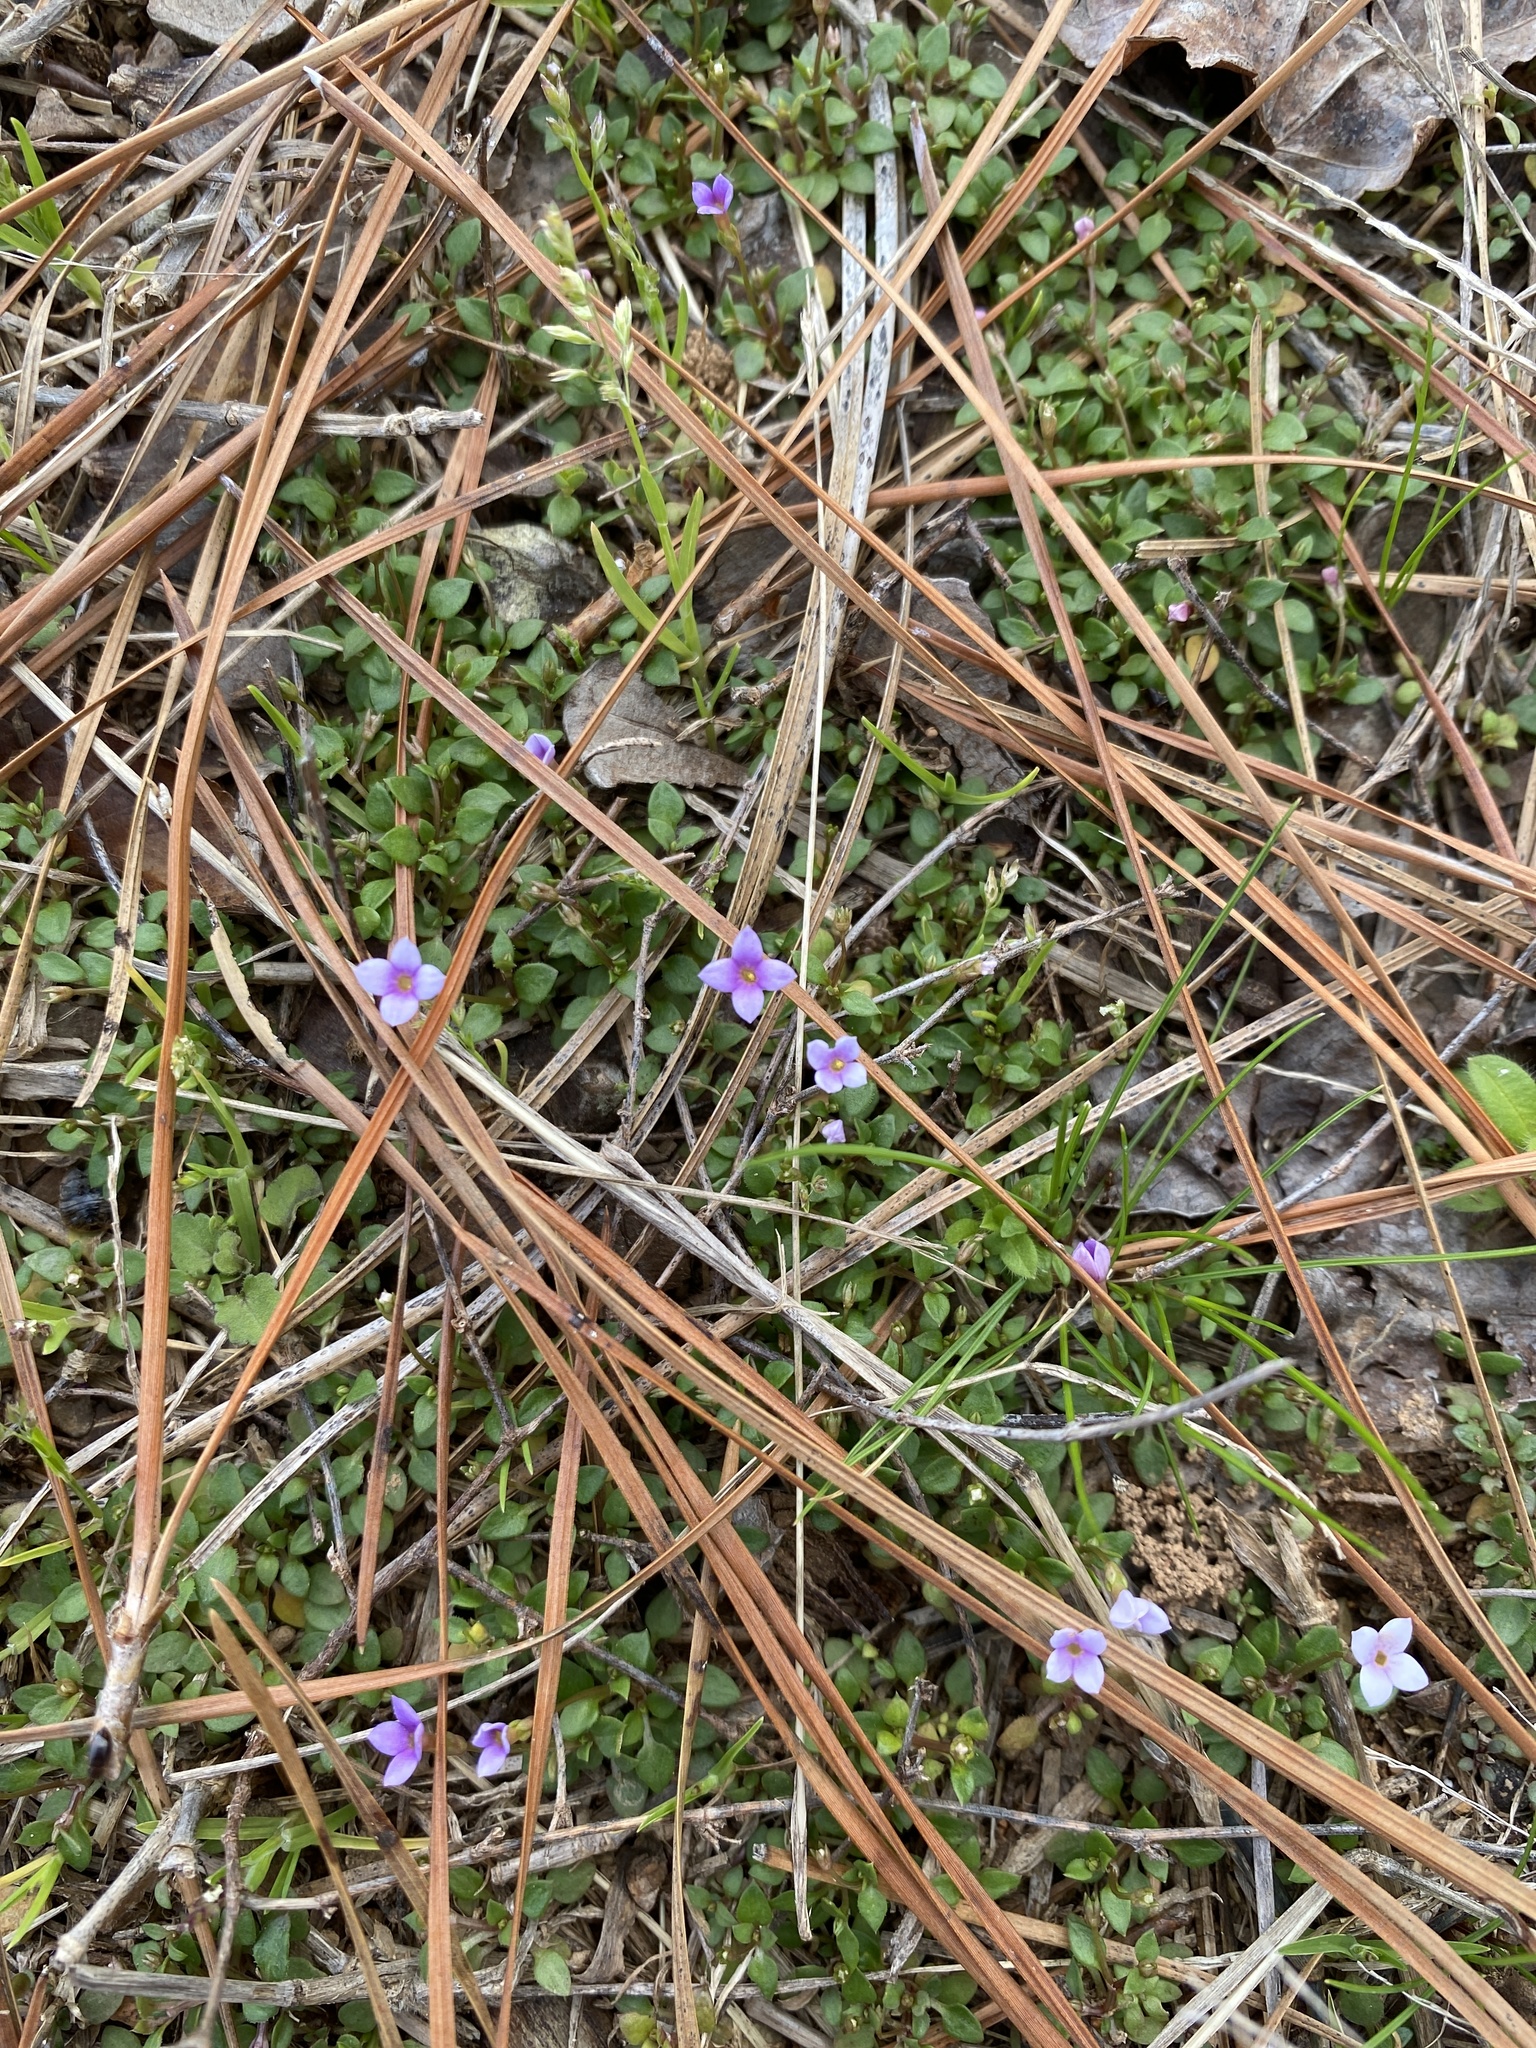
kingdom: Plantae
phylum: Tracheophyta
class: Magnoliopsida
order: Gentianales
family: Rubiaceae
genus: Houstonia
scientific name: Houstonia pusilla
